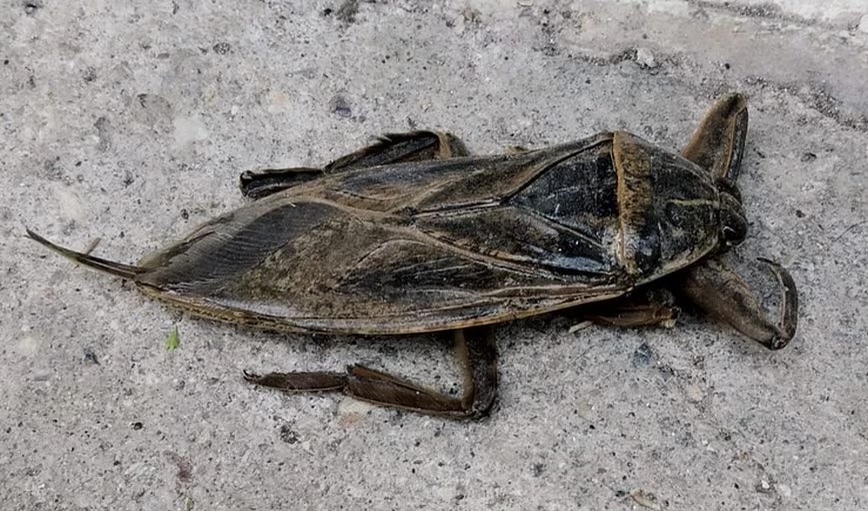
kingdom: Animalia
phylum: Arthropoda
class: Insecta
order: Hemiptera
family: Belostomatidae
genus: Lethocerus
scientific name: Lethocerus patruelis
